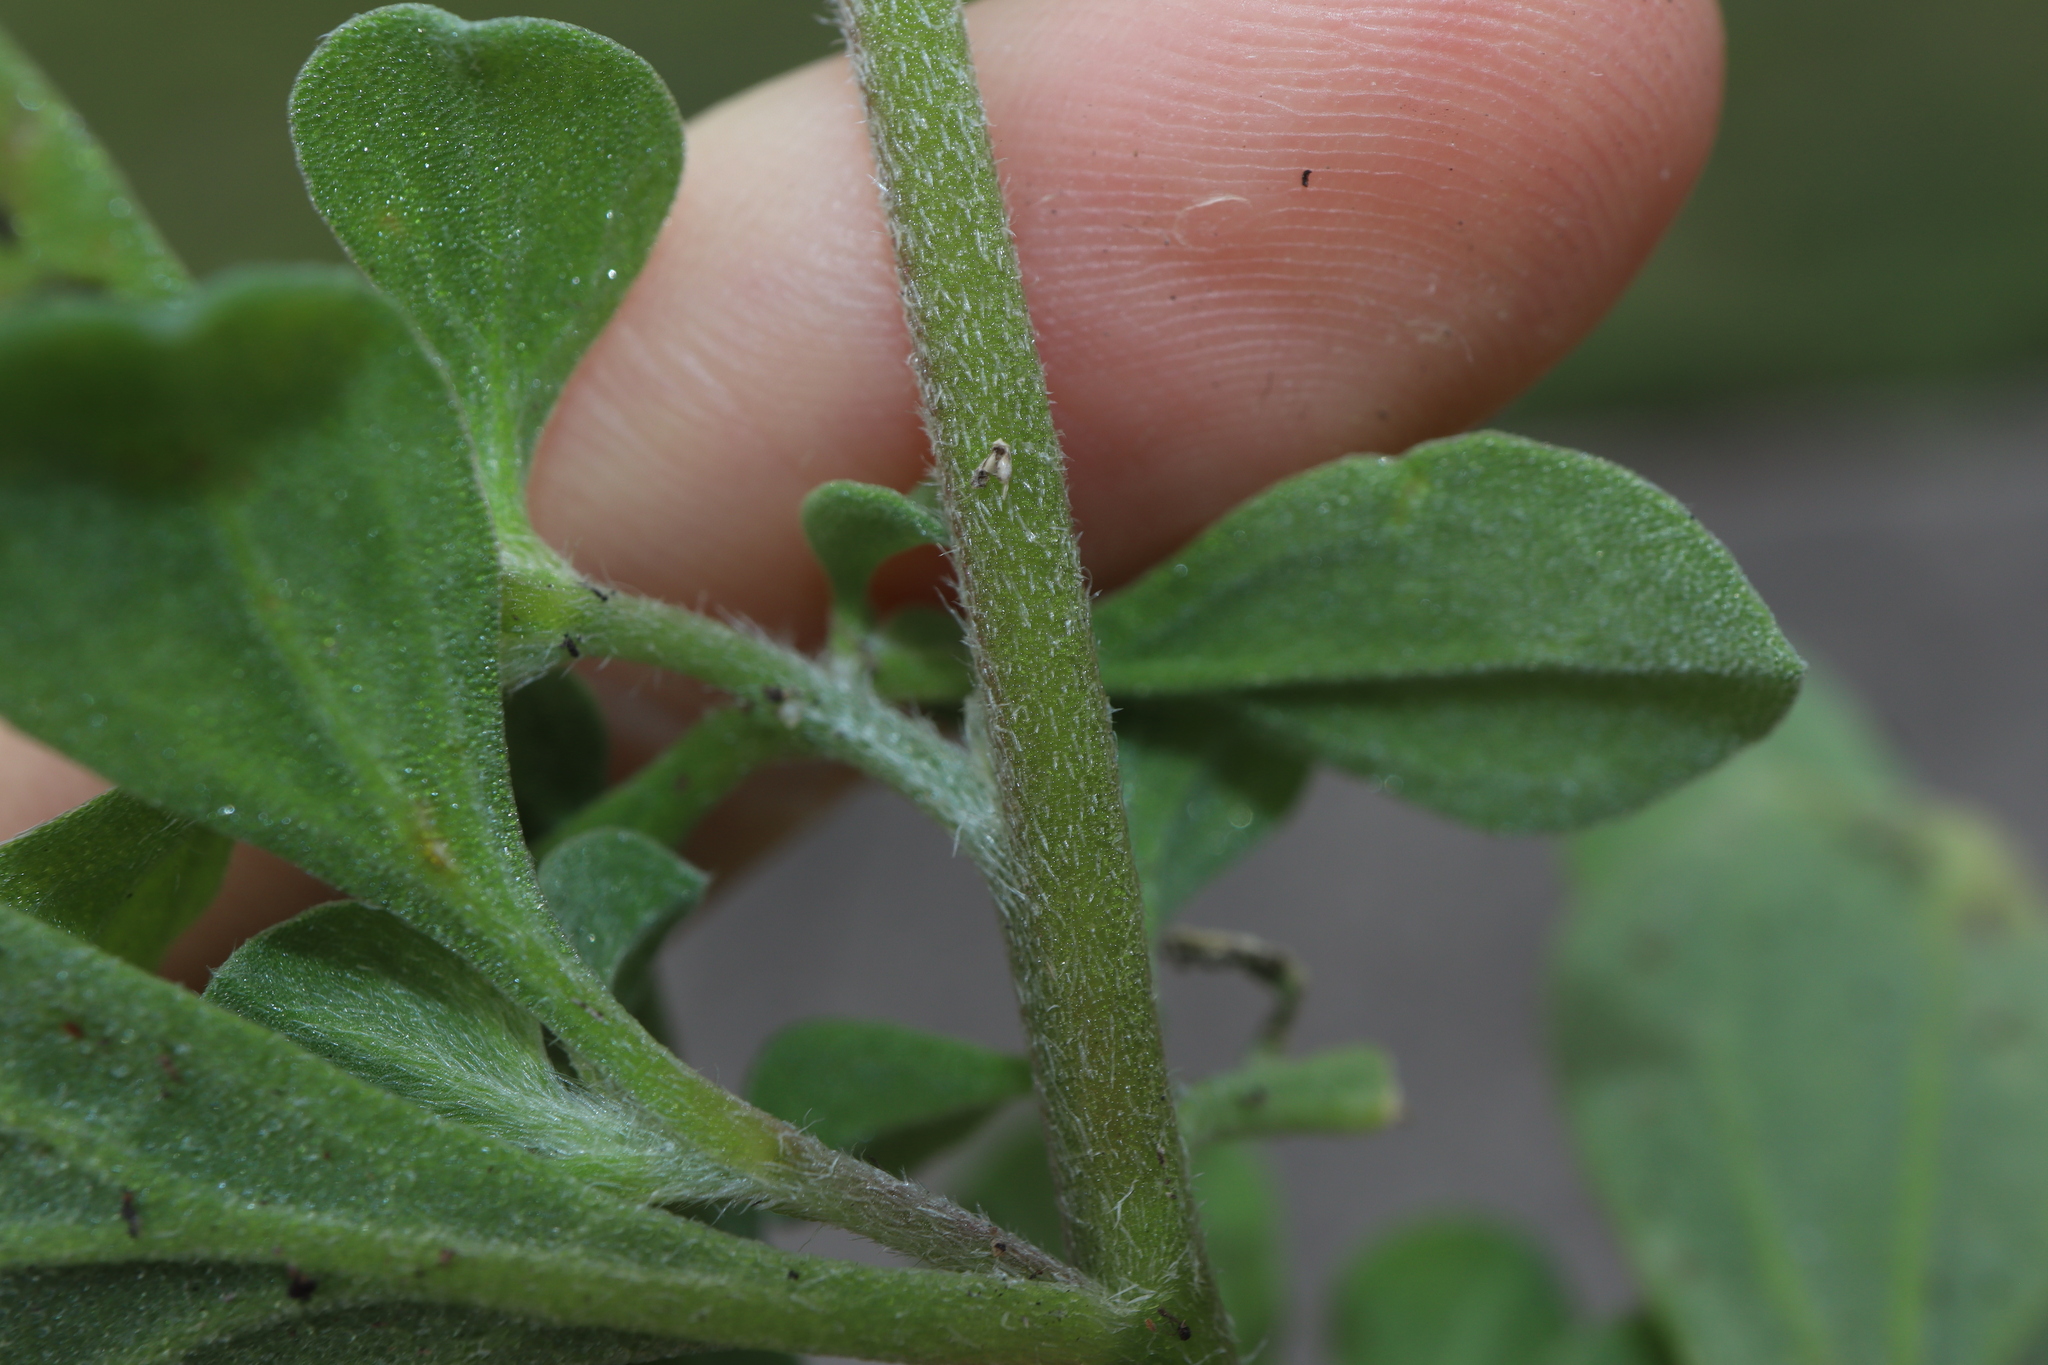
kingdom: Plantae
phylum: Tracheophyta
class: Magnoliopsida
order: Caryophyllales
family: Aizoaceae
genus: Aizoon
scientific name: Aizoon pubescens
